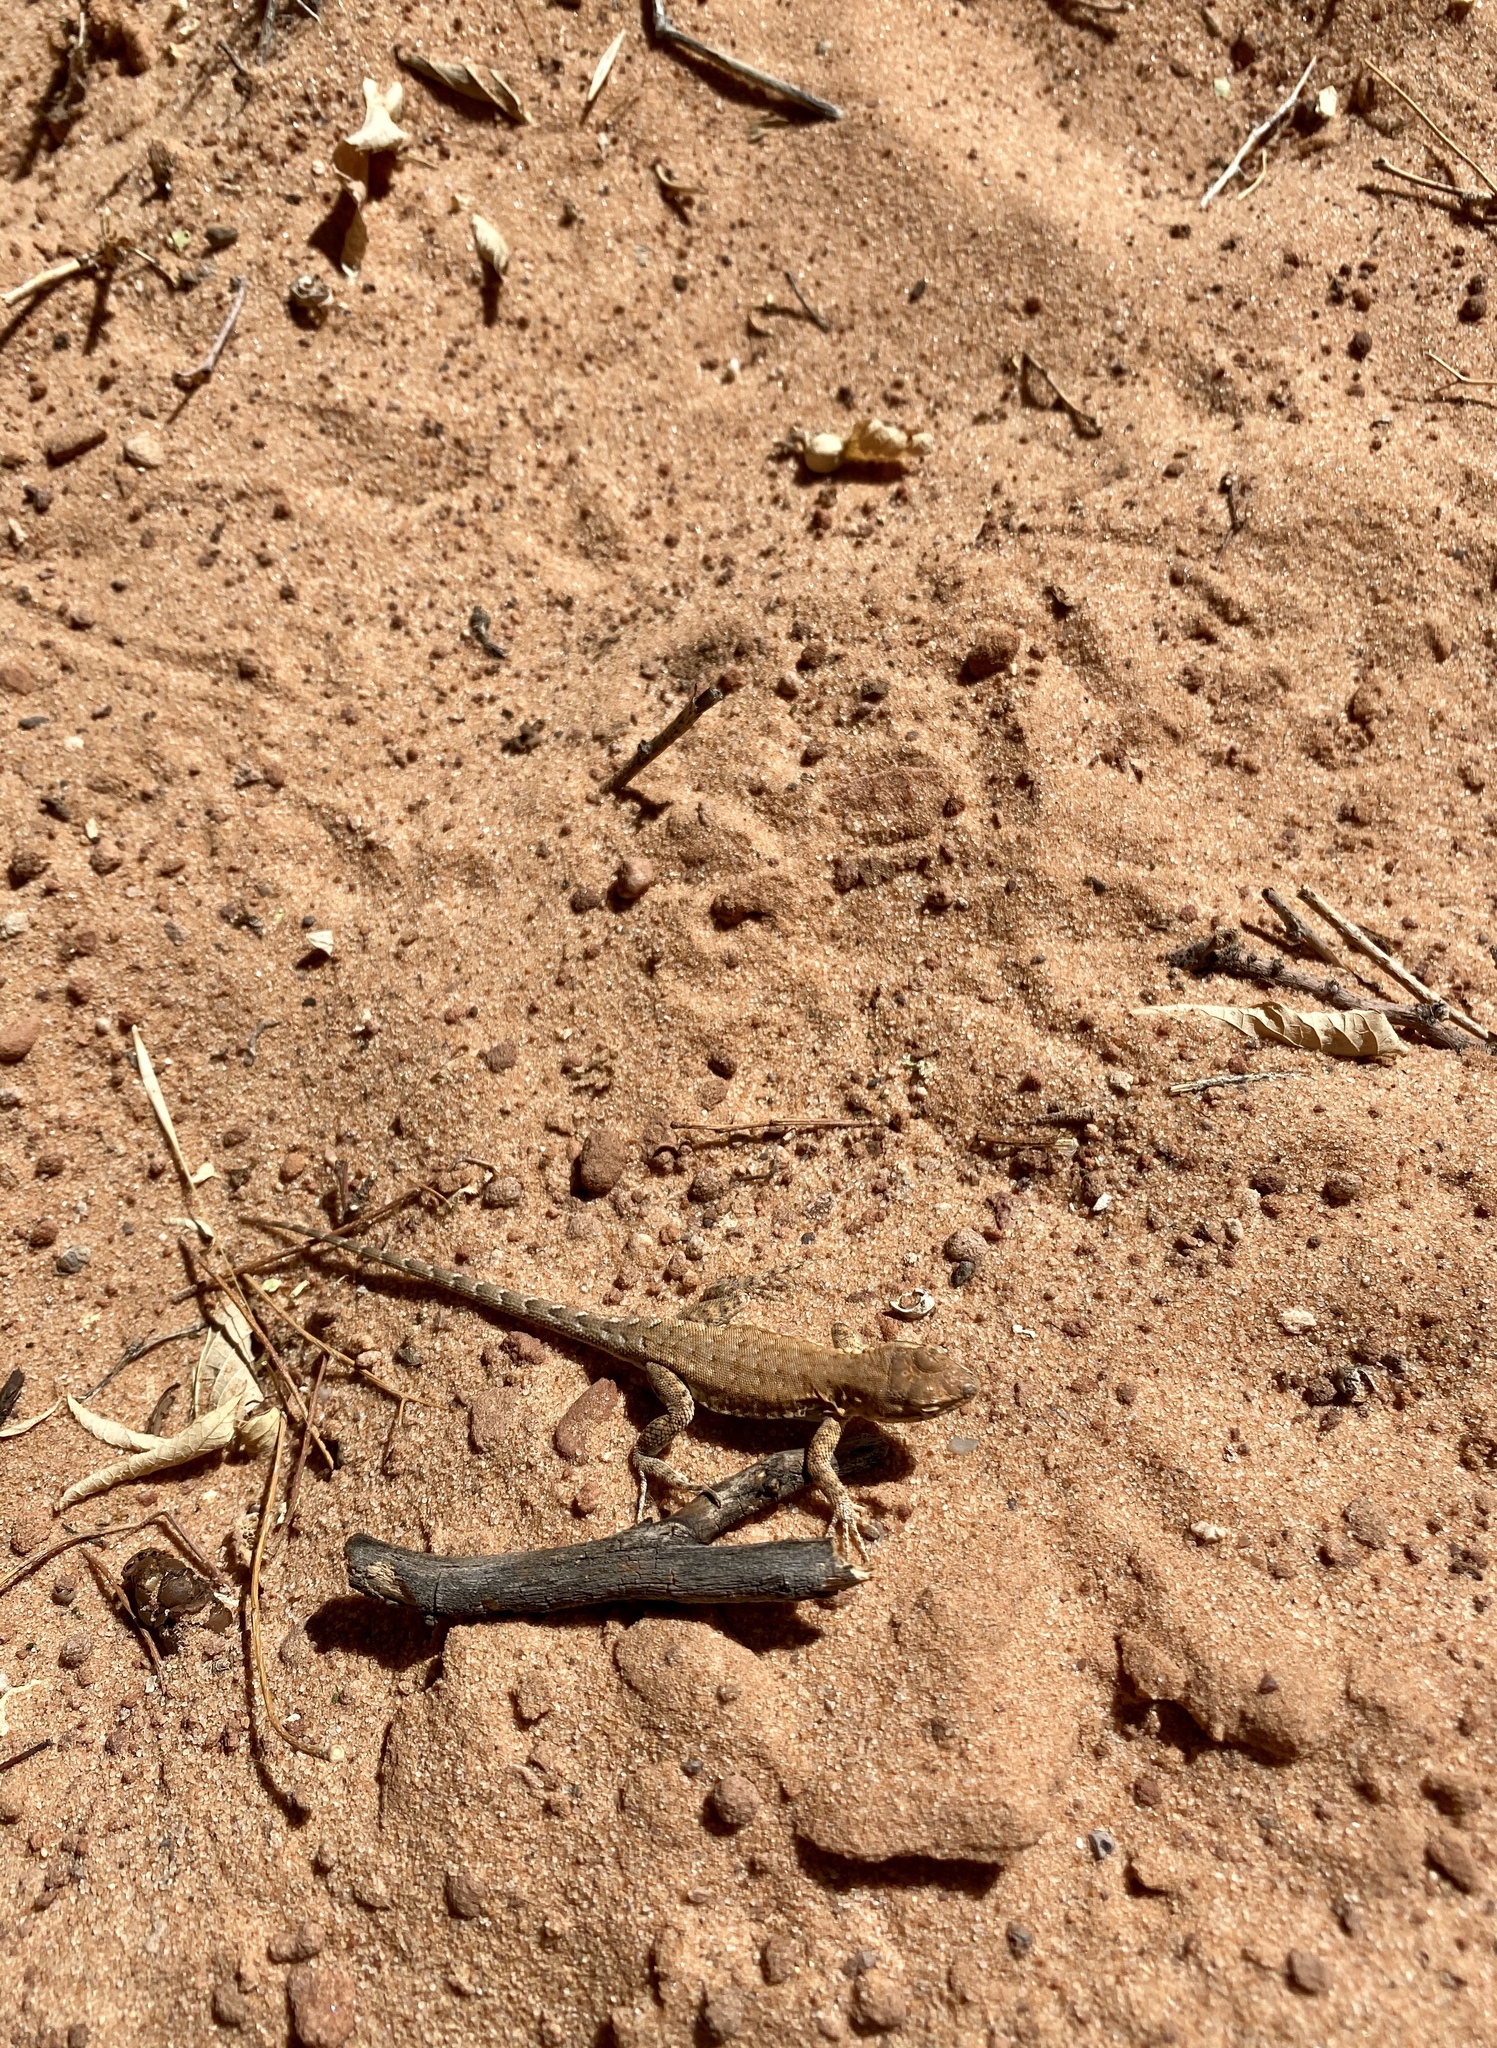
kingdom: Animalia
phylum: Chordata
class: Squamata
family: Phrynosomatidae
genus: Uta
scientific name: Uta stansburiana
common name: Side-blotched lizard
